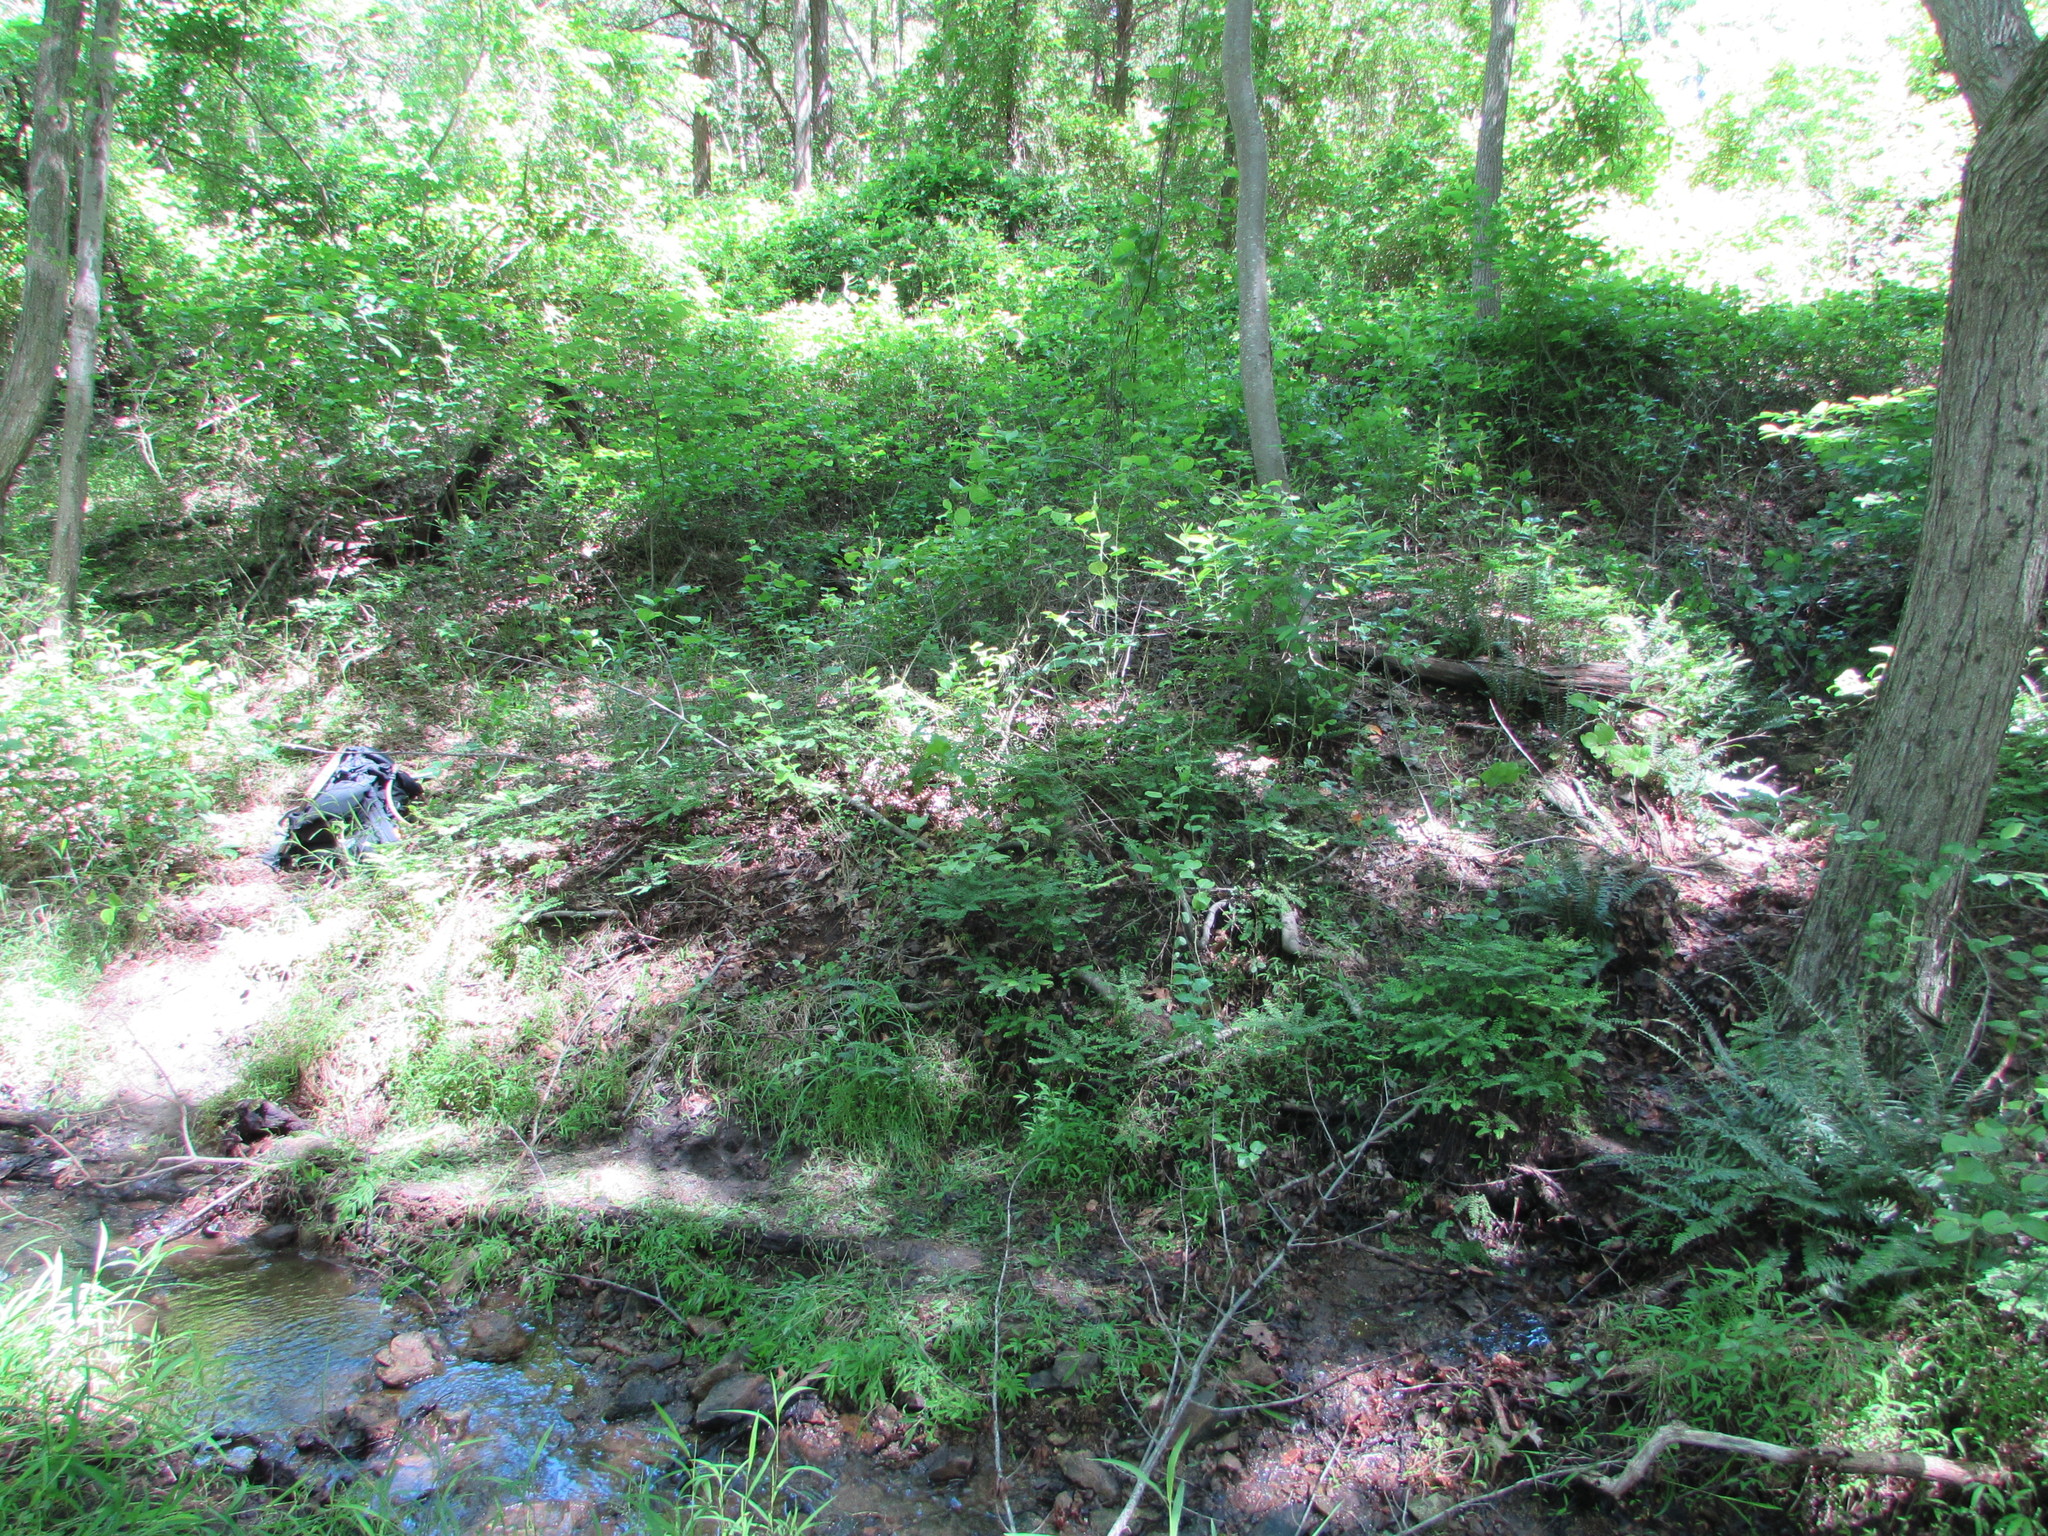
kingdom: Plantae
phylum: Tracheophyta
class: Polypodiopsida
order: Polypodiales
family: Pteridaceae
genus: Adiantum
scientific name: Adiantum pedatum
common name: Five-finger fern
